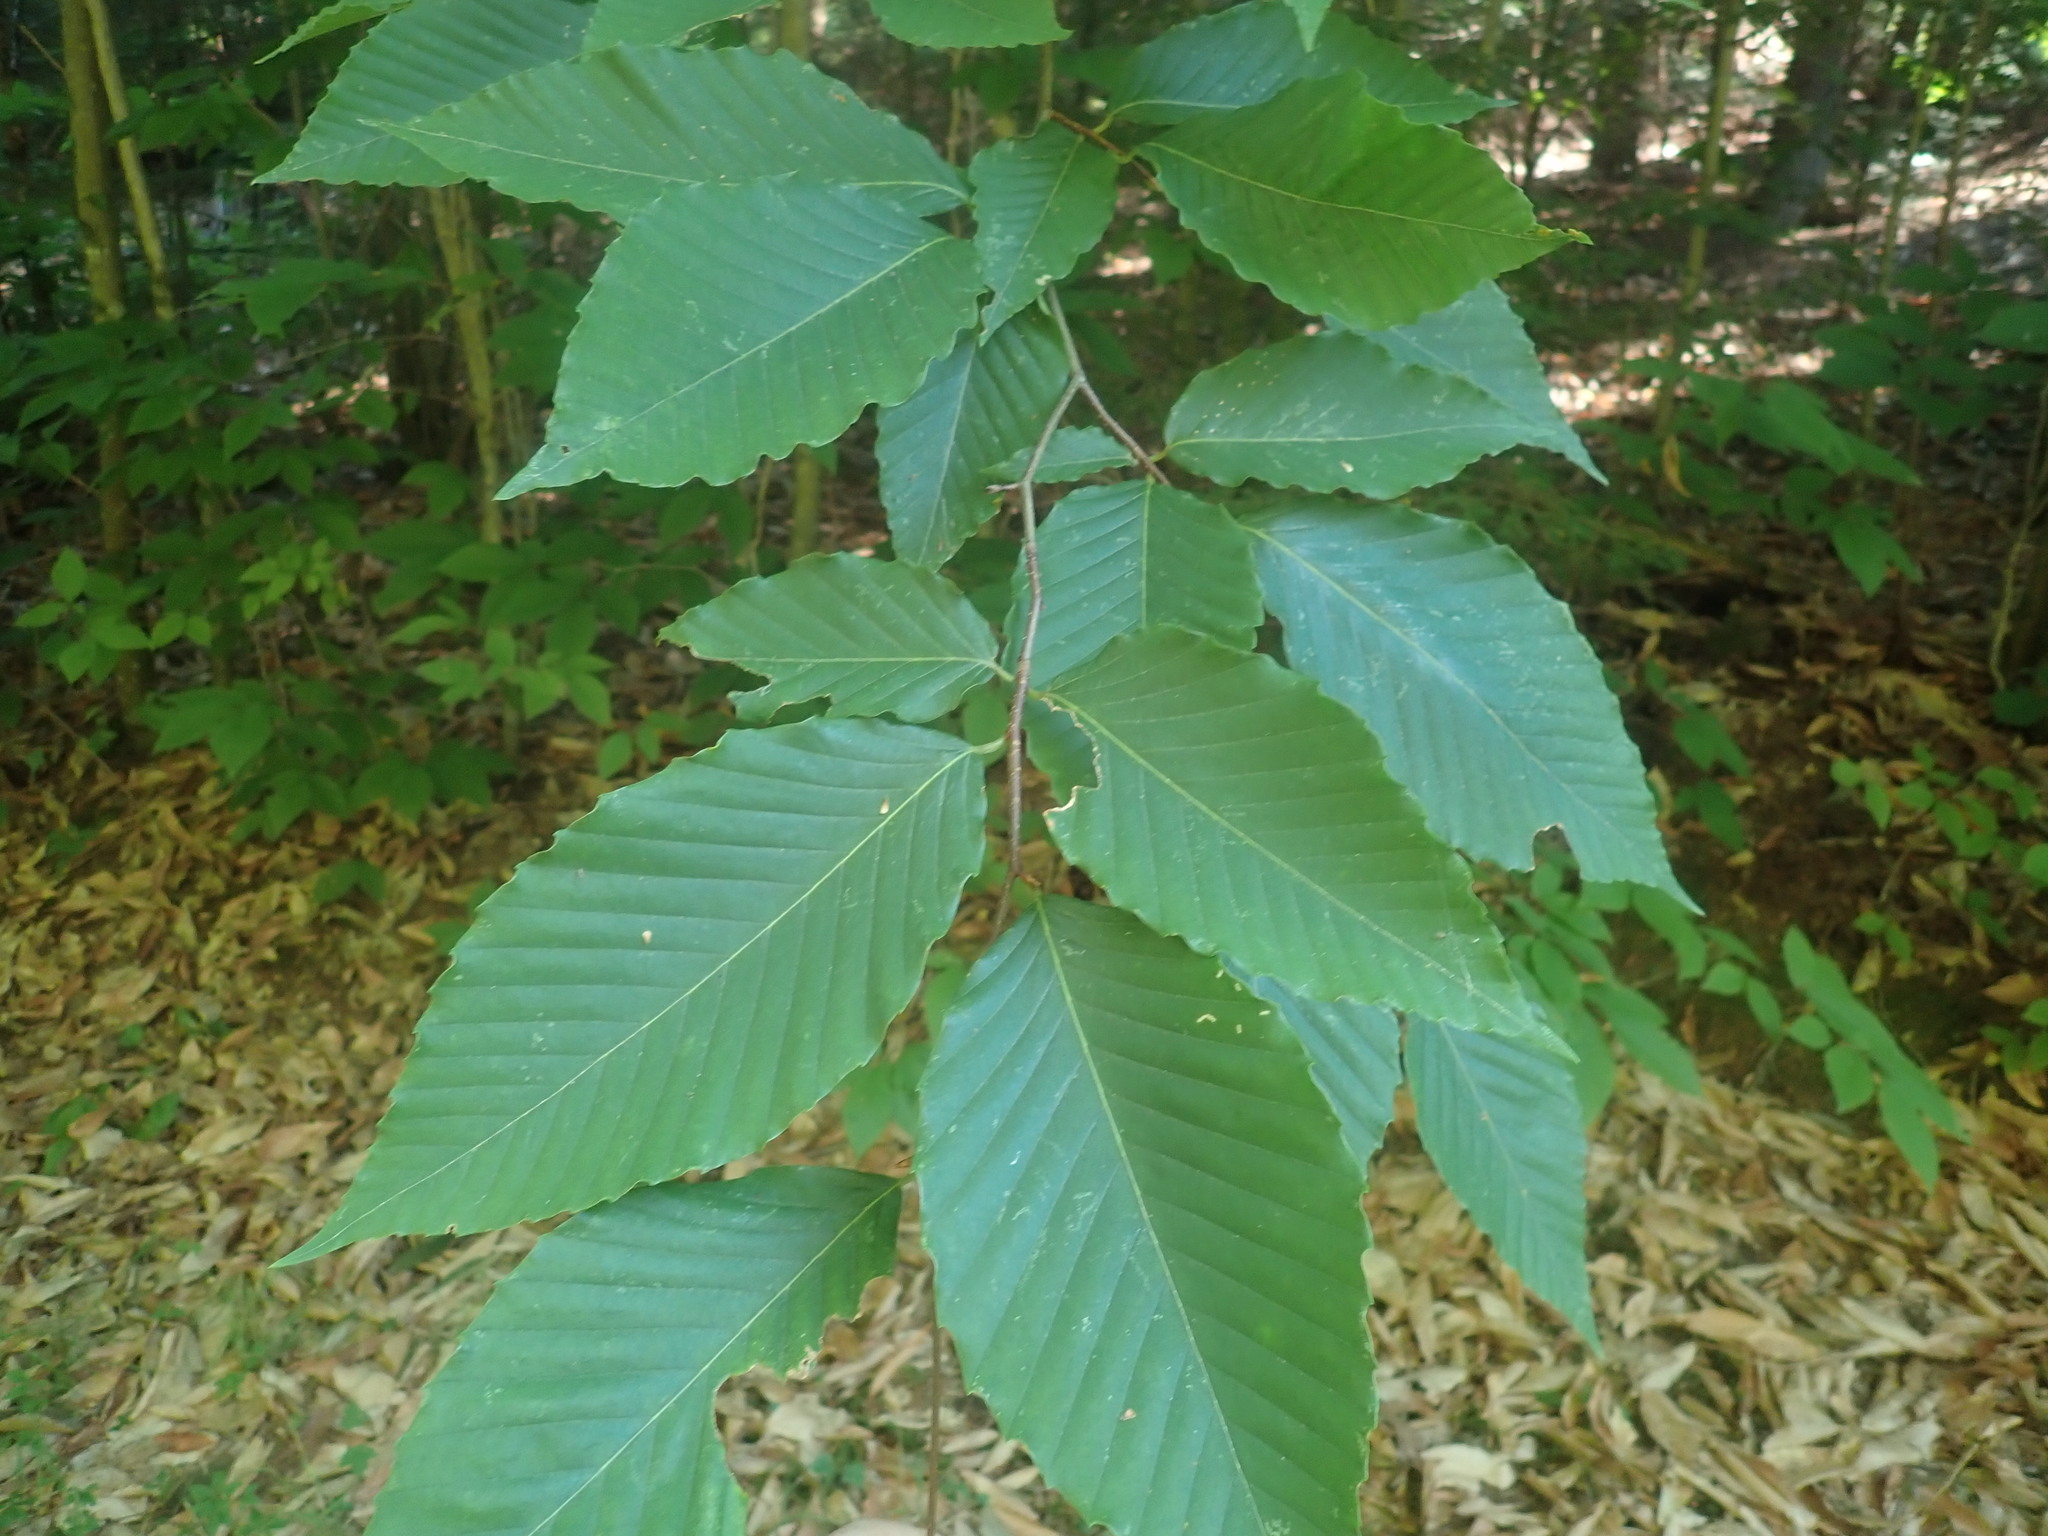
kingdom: Plantae
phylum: Tracheophyta
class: Magnoliopsida
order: Fagales
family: Fagaceae
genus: Fagus
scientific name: Fagus grandifolia
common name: American beech
